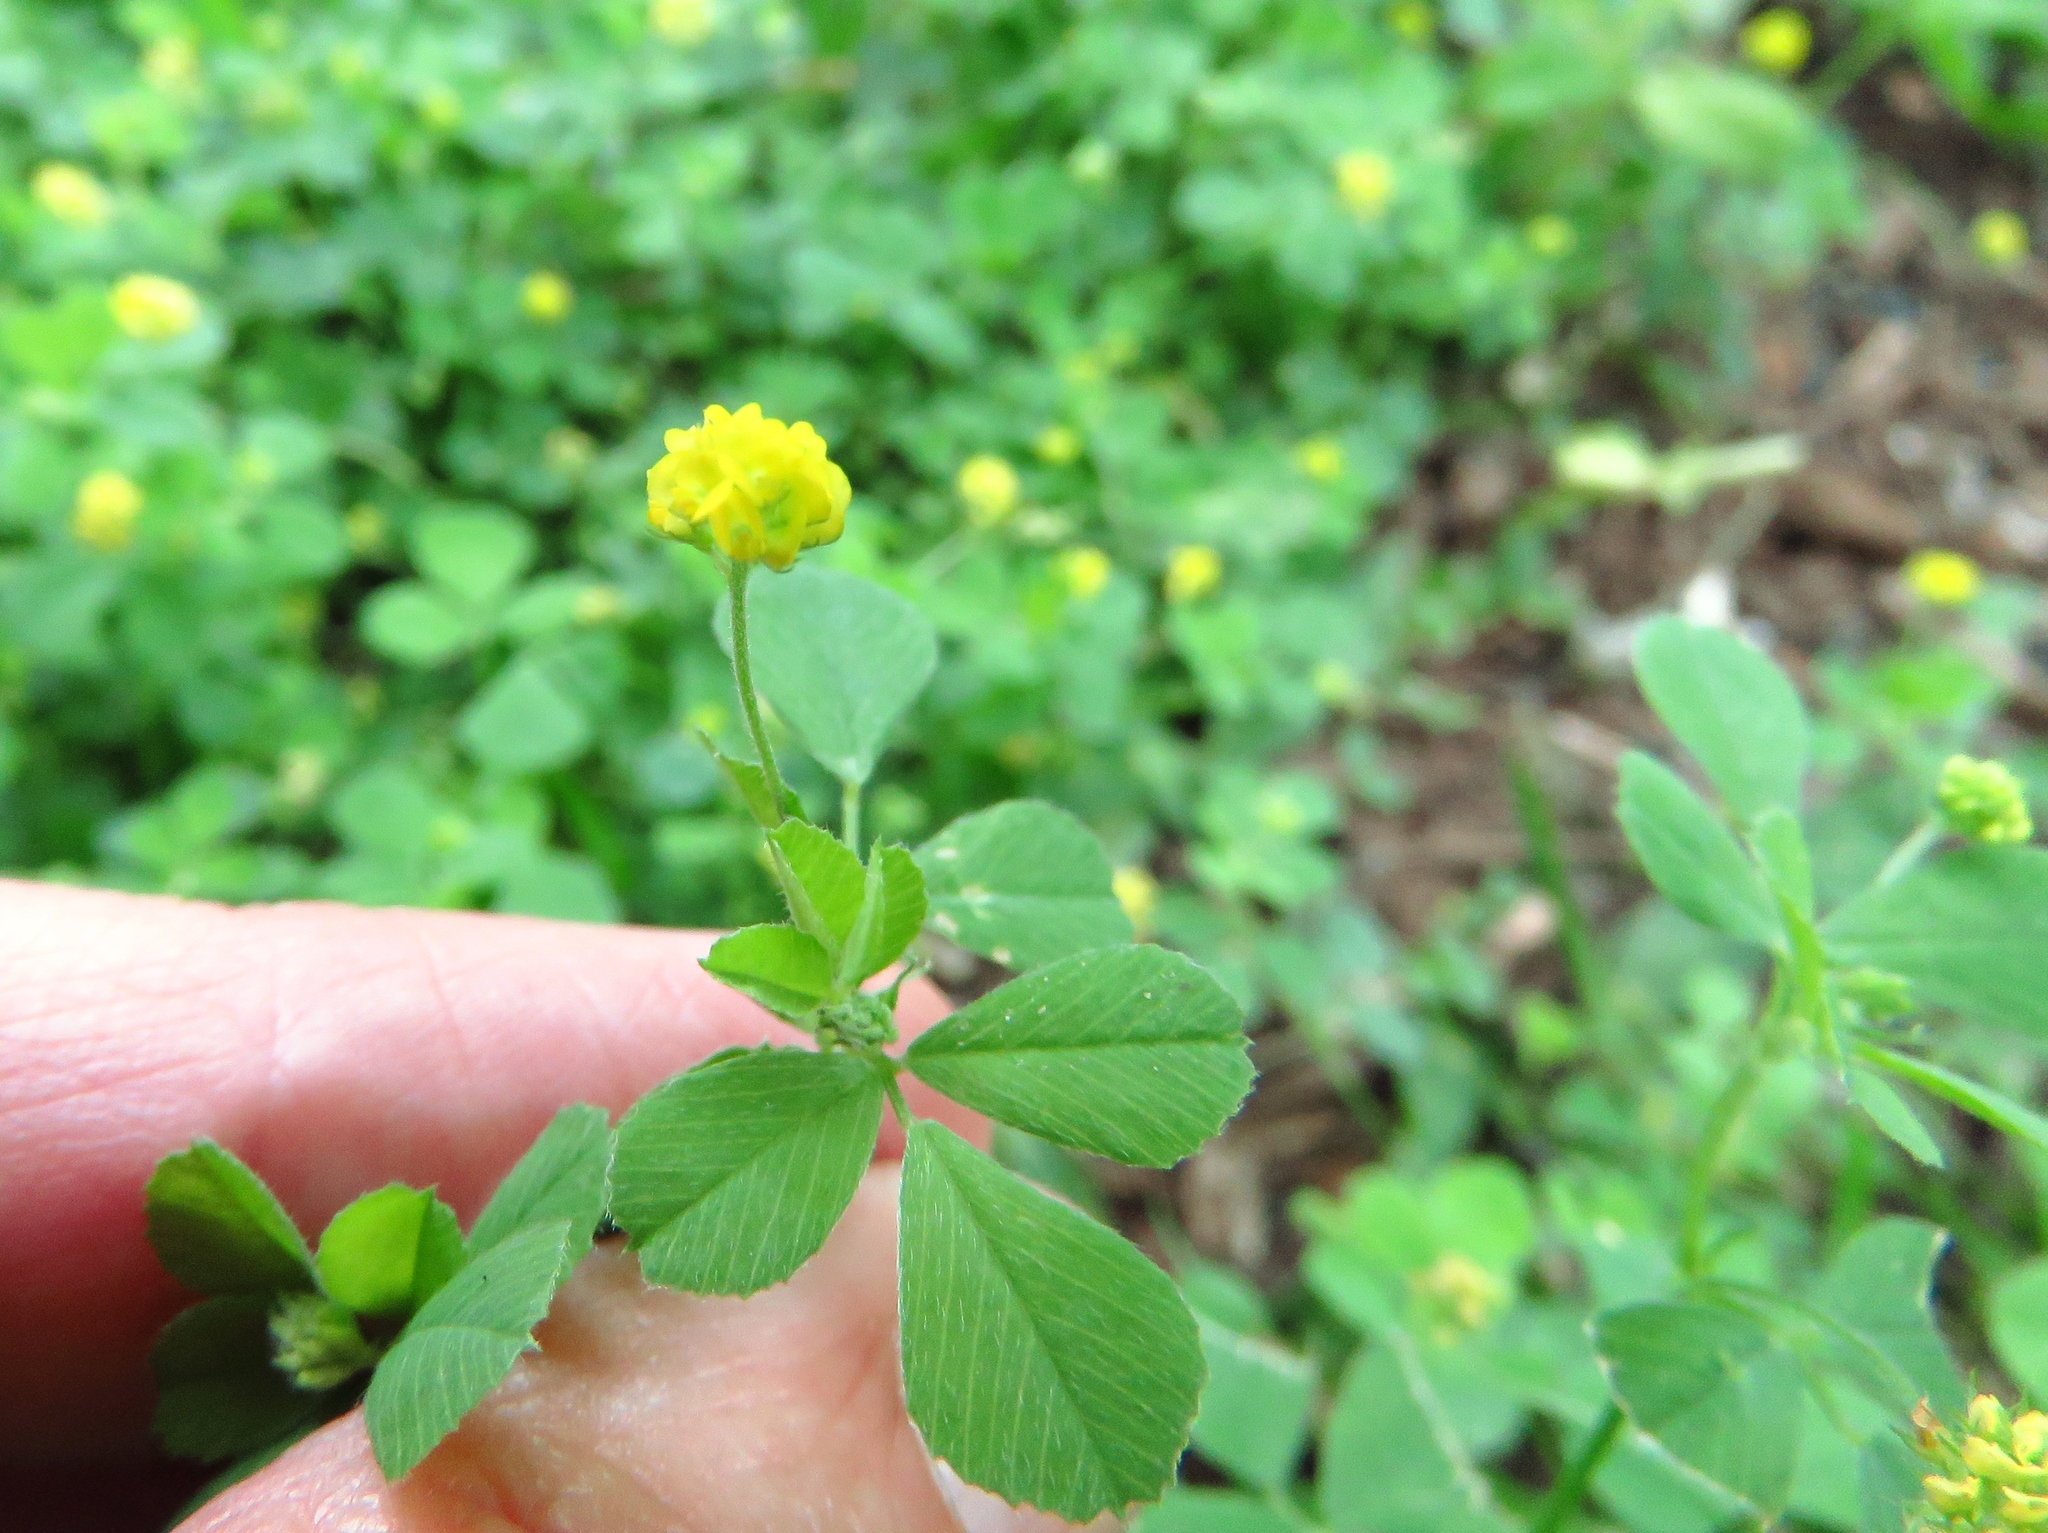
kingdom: Plantae
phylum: Tracheophyta
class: Magnoliopsida
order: Fabales
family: Fabaceae
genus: Medicago
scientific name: Medicago lupulina
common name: Black medick
